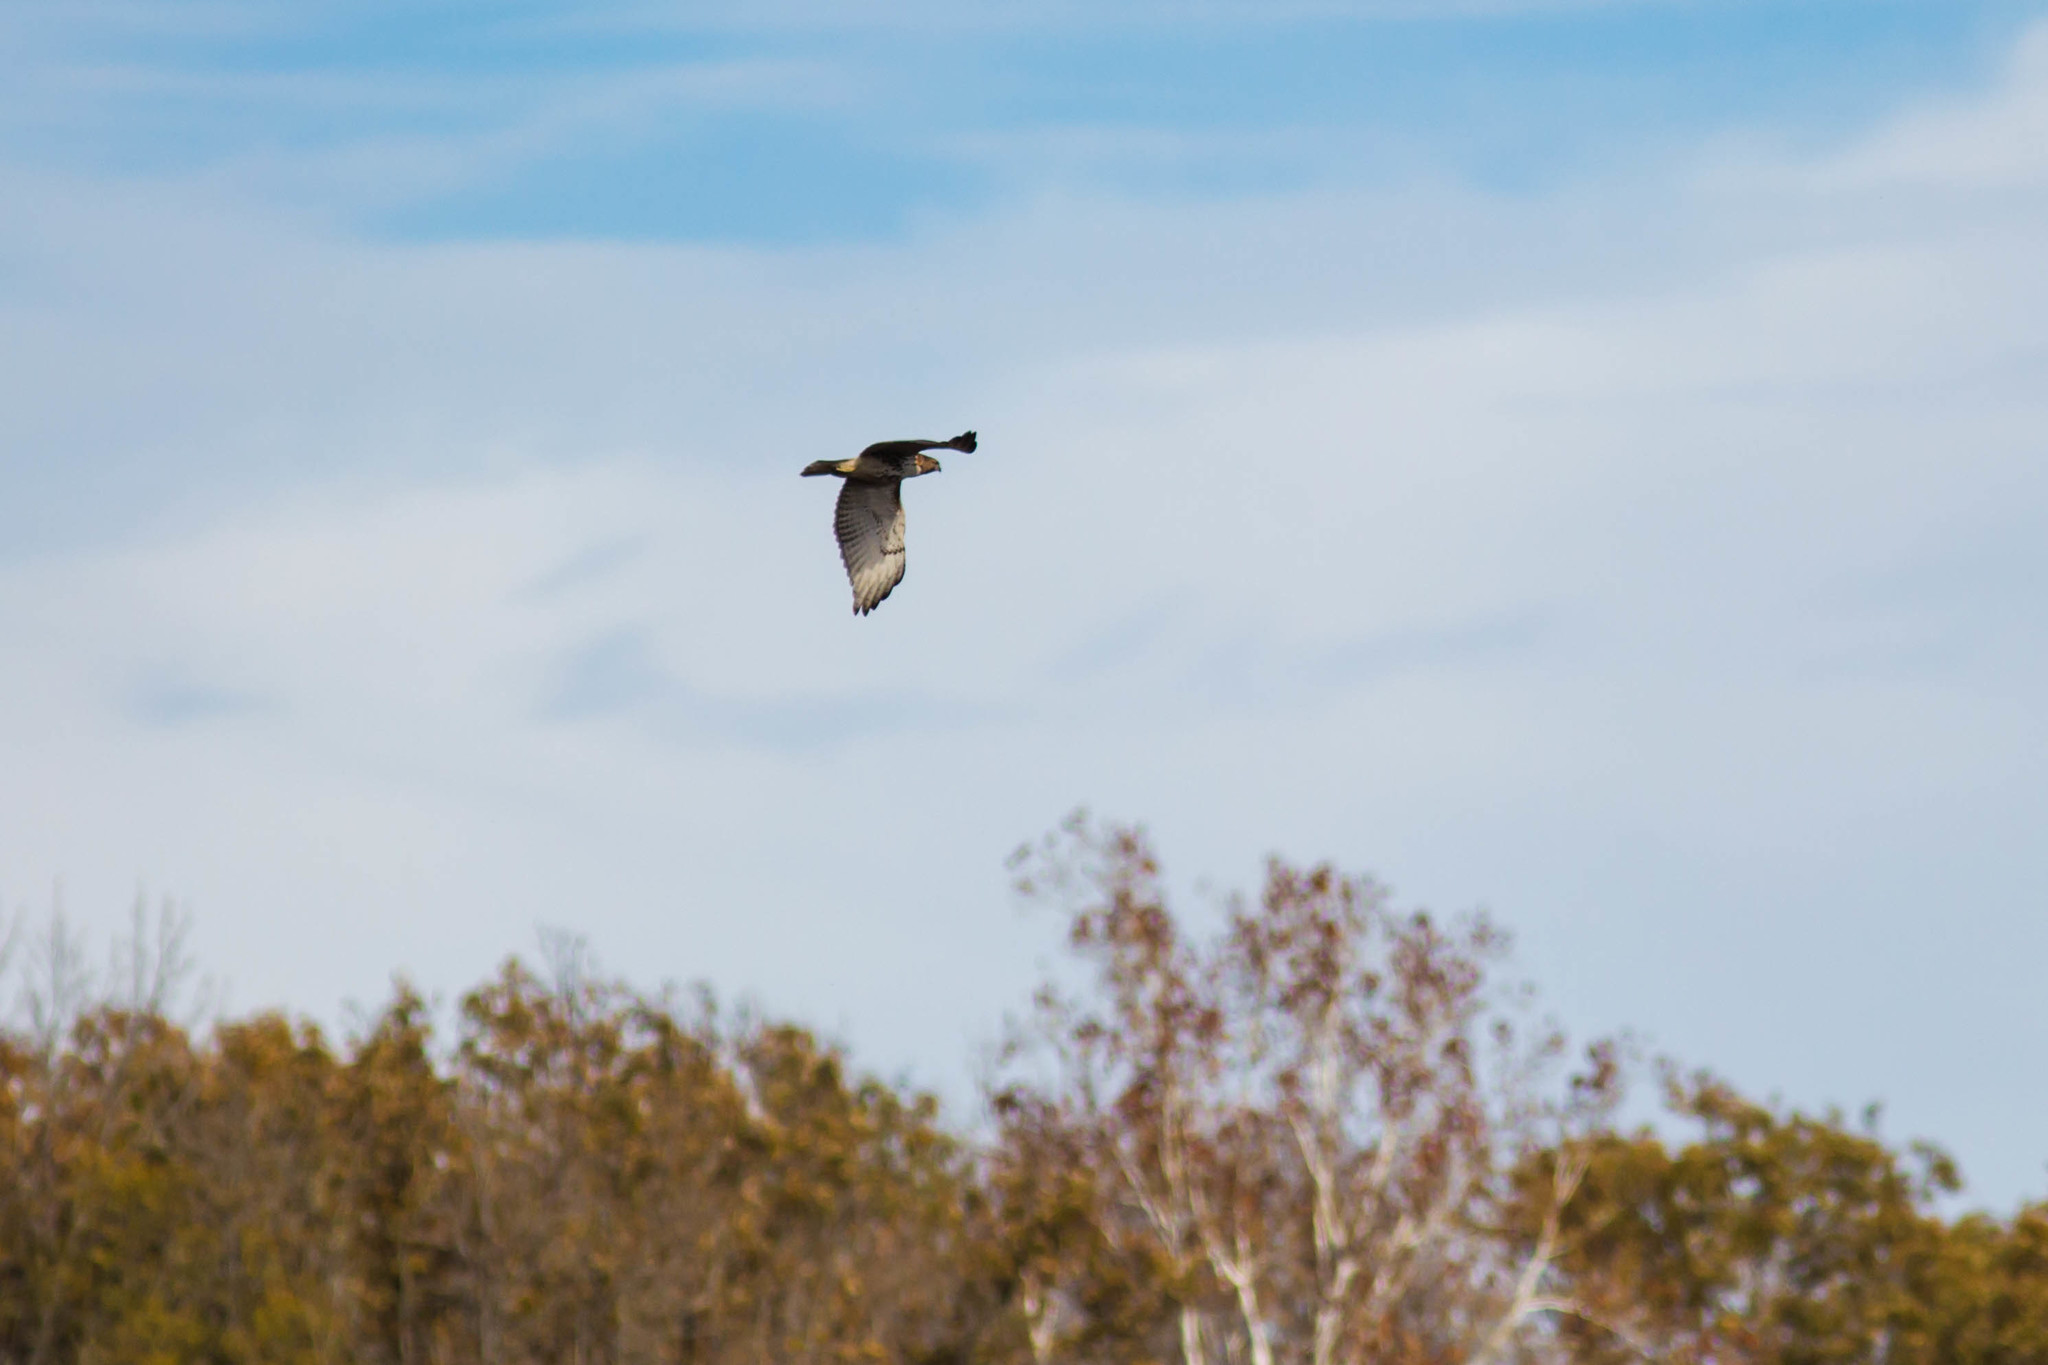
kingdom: Animalia
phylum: Chordata
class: Aves
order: Accipitriformes
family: Accipitridae
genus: Buteo
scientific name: Buteo jamaicensis
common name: Red-tailed hawk
